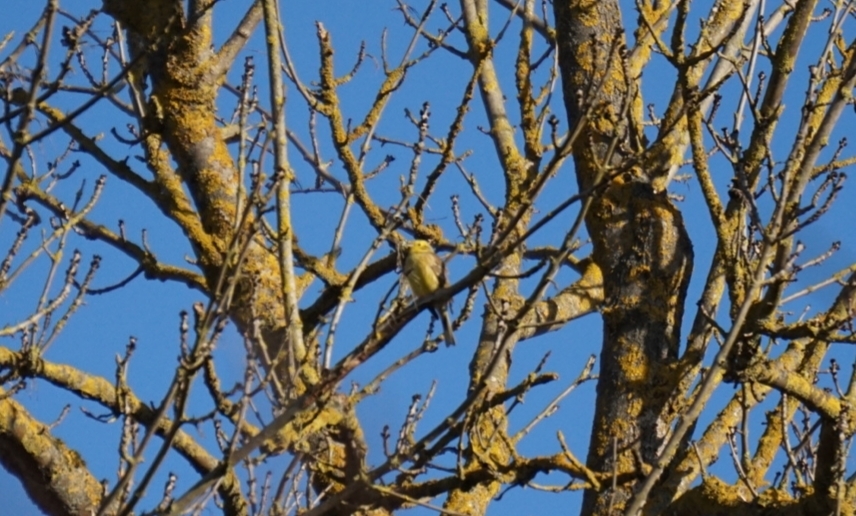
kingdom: Animalia
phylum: Chordata
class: Aves
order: Passeriformes
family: Emberizidae
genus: Emberiza
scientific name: Emberiza citrinella
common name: Yellowhammer
